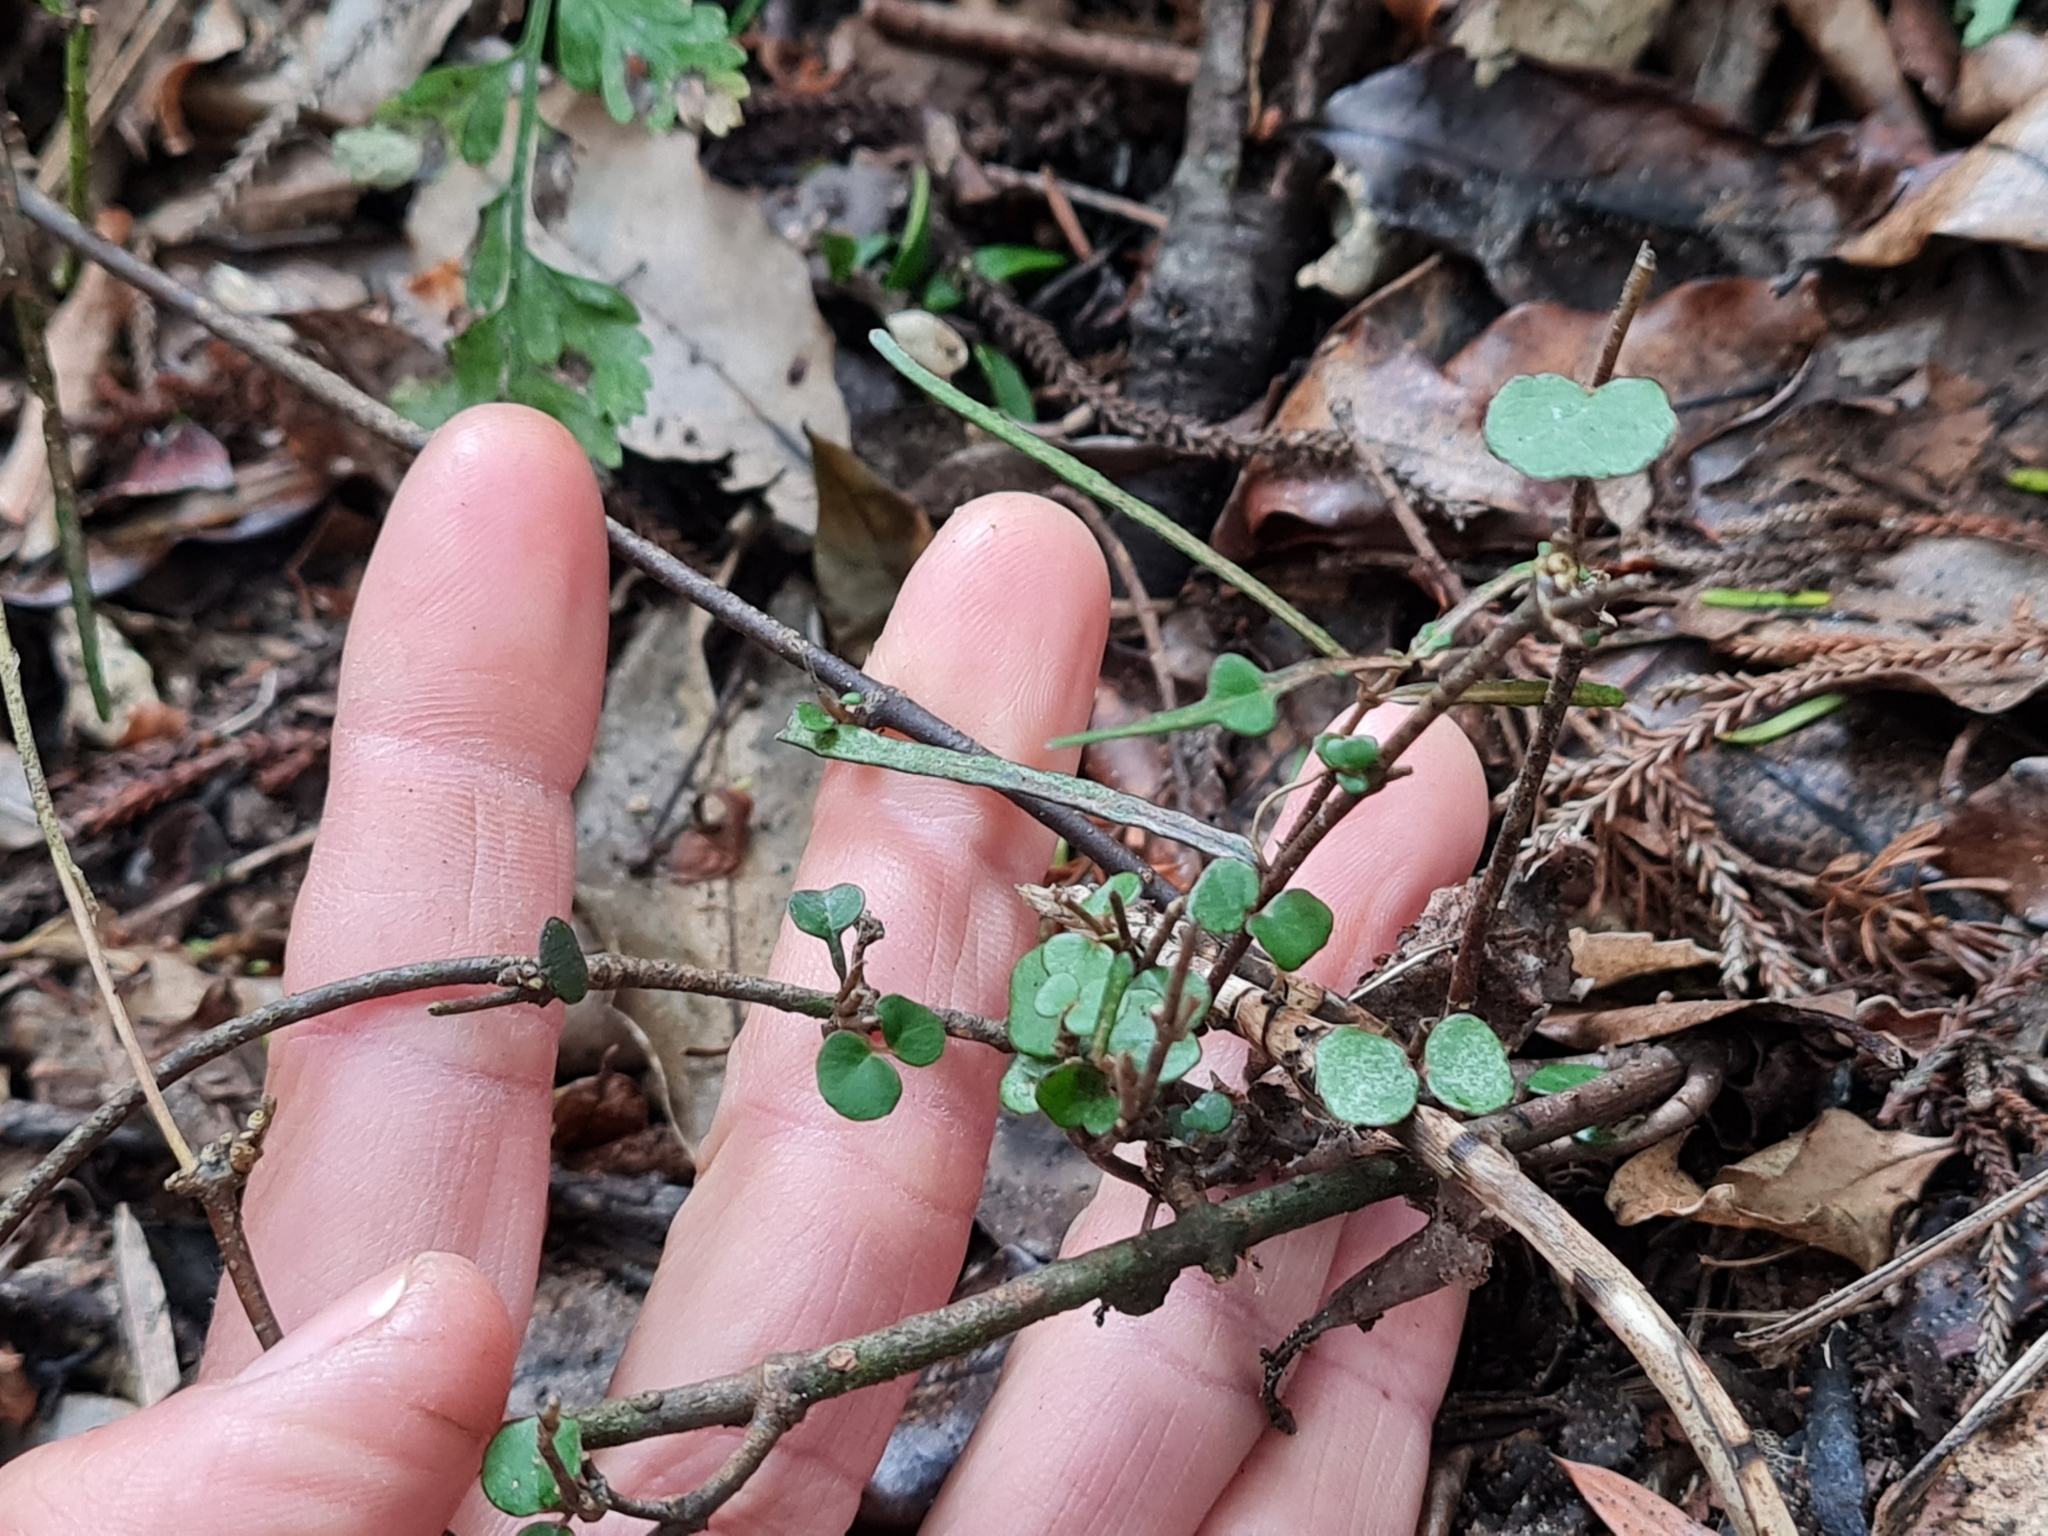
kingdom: Plantae
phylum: Tracheophyta
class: Magnoliopsida
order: Gentianales
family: Apocynaceae
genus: Parsonsia
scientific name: Parsonsia heterophylla
